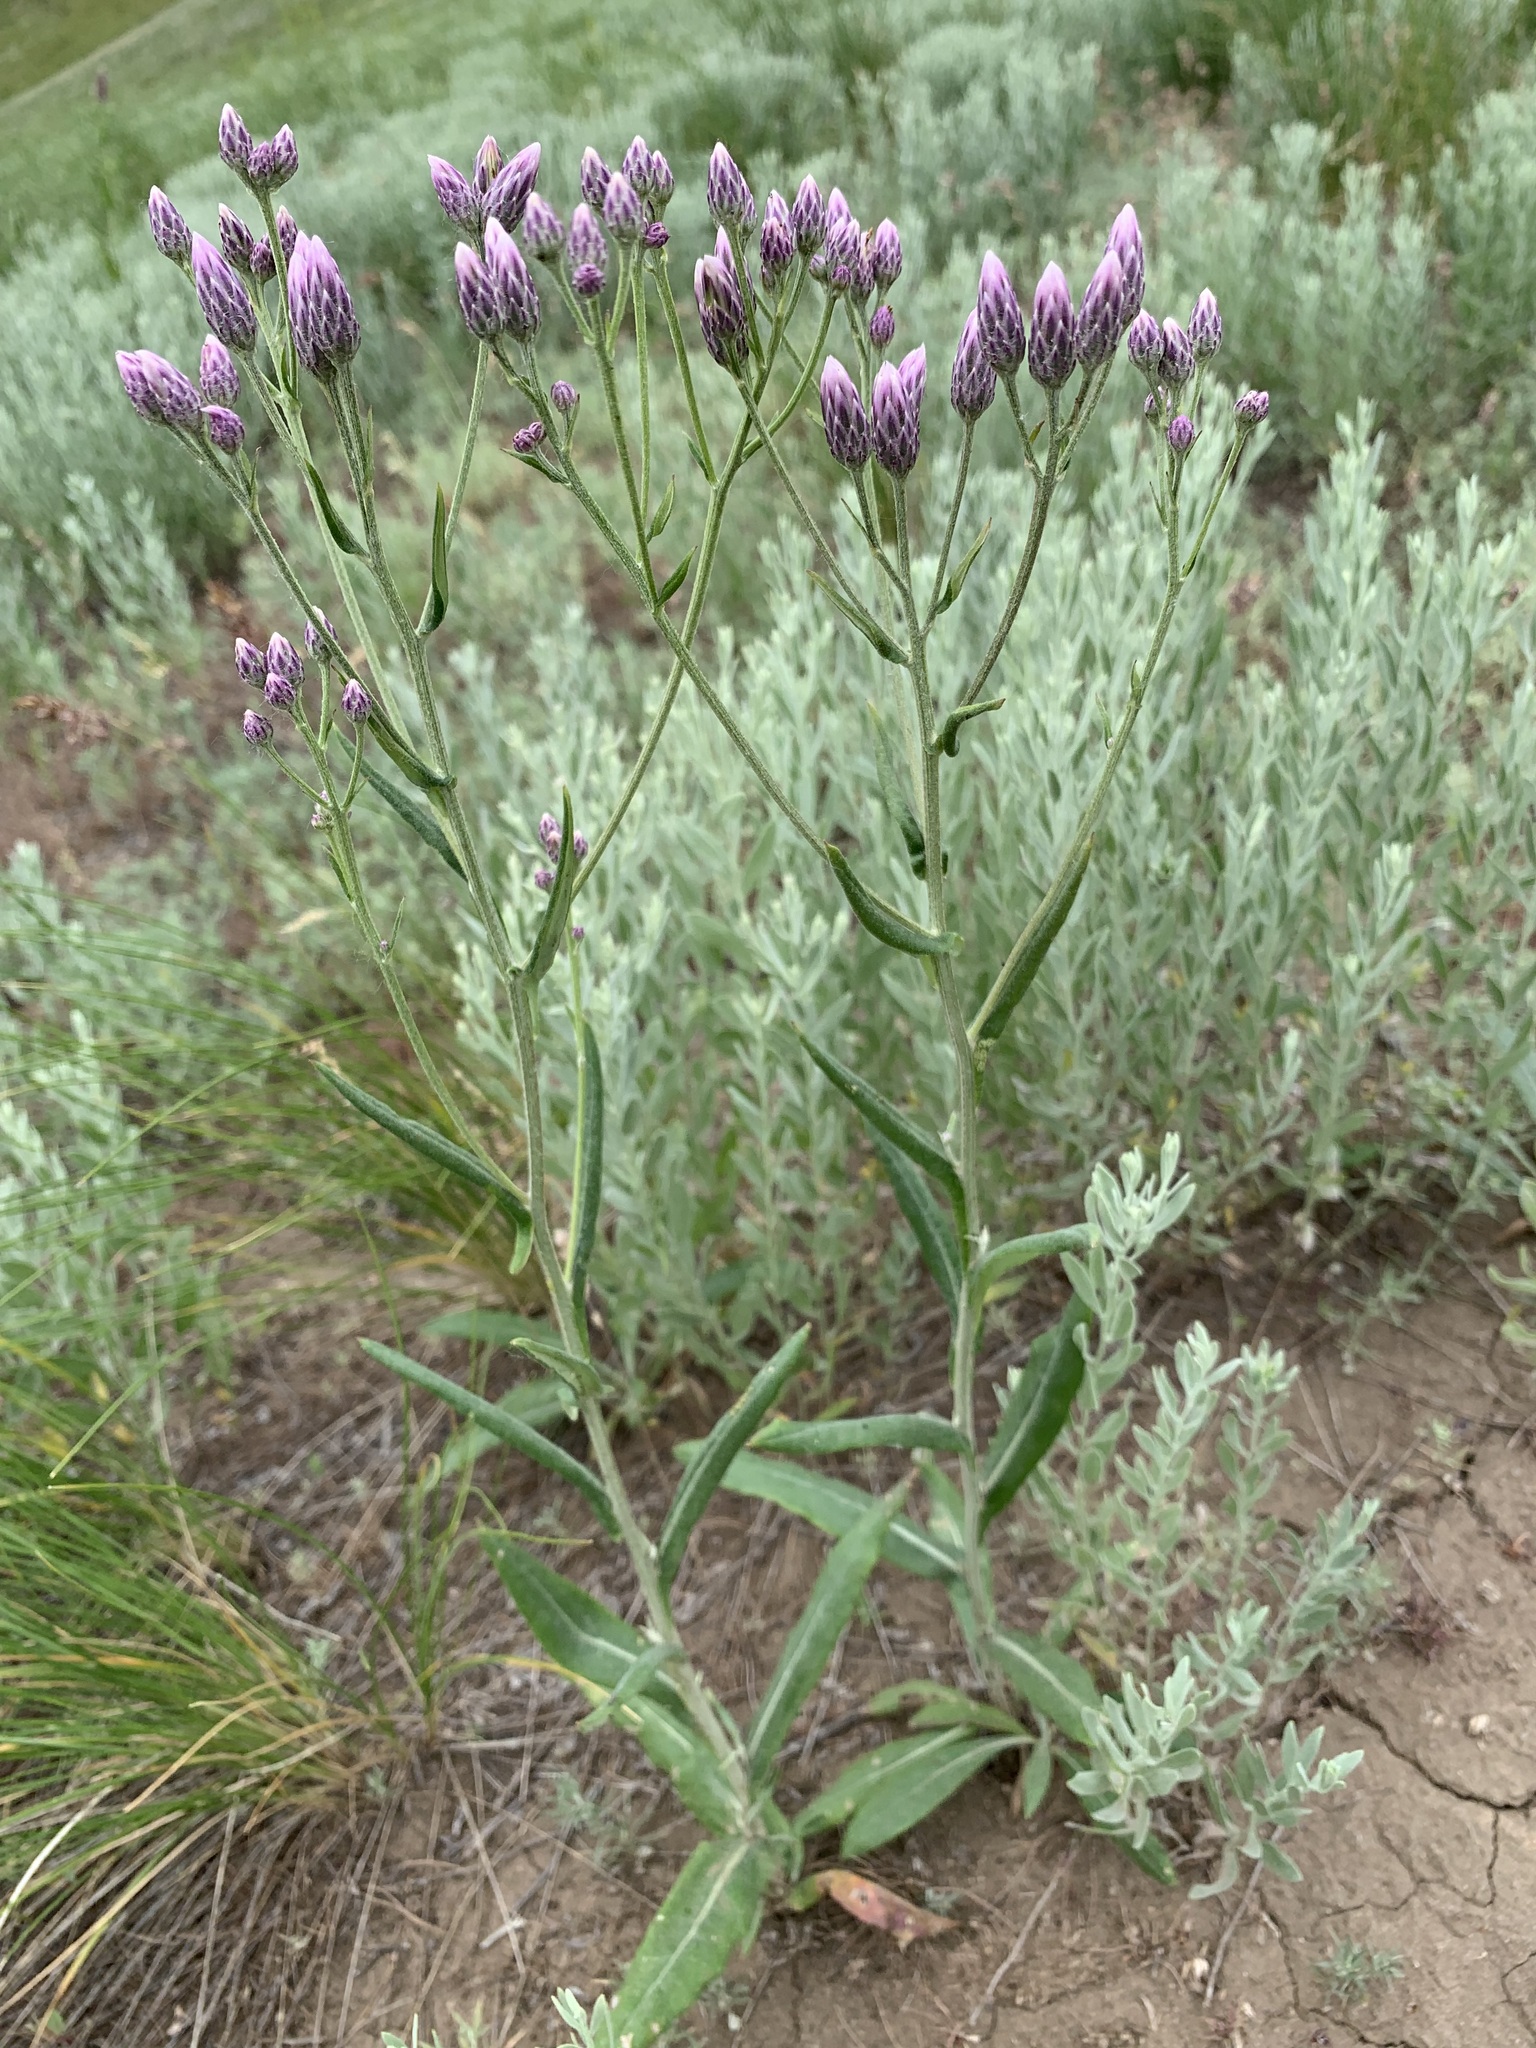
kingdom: Plantae
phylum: Tracheophyta
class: Magnoliopsida
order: Asterales
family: Asteraceae
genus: Jurinea
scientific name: Jurinea multiflora
